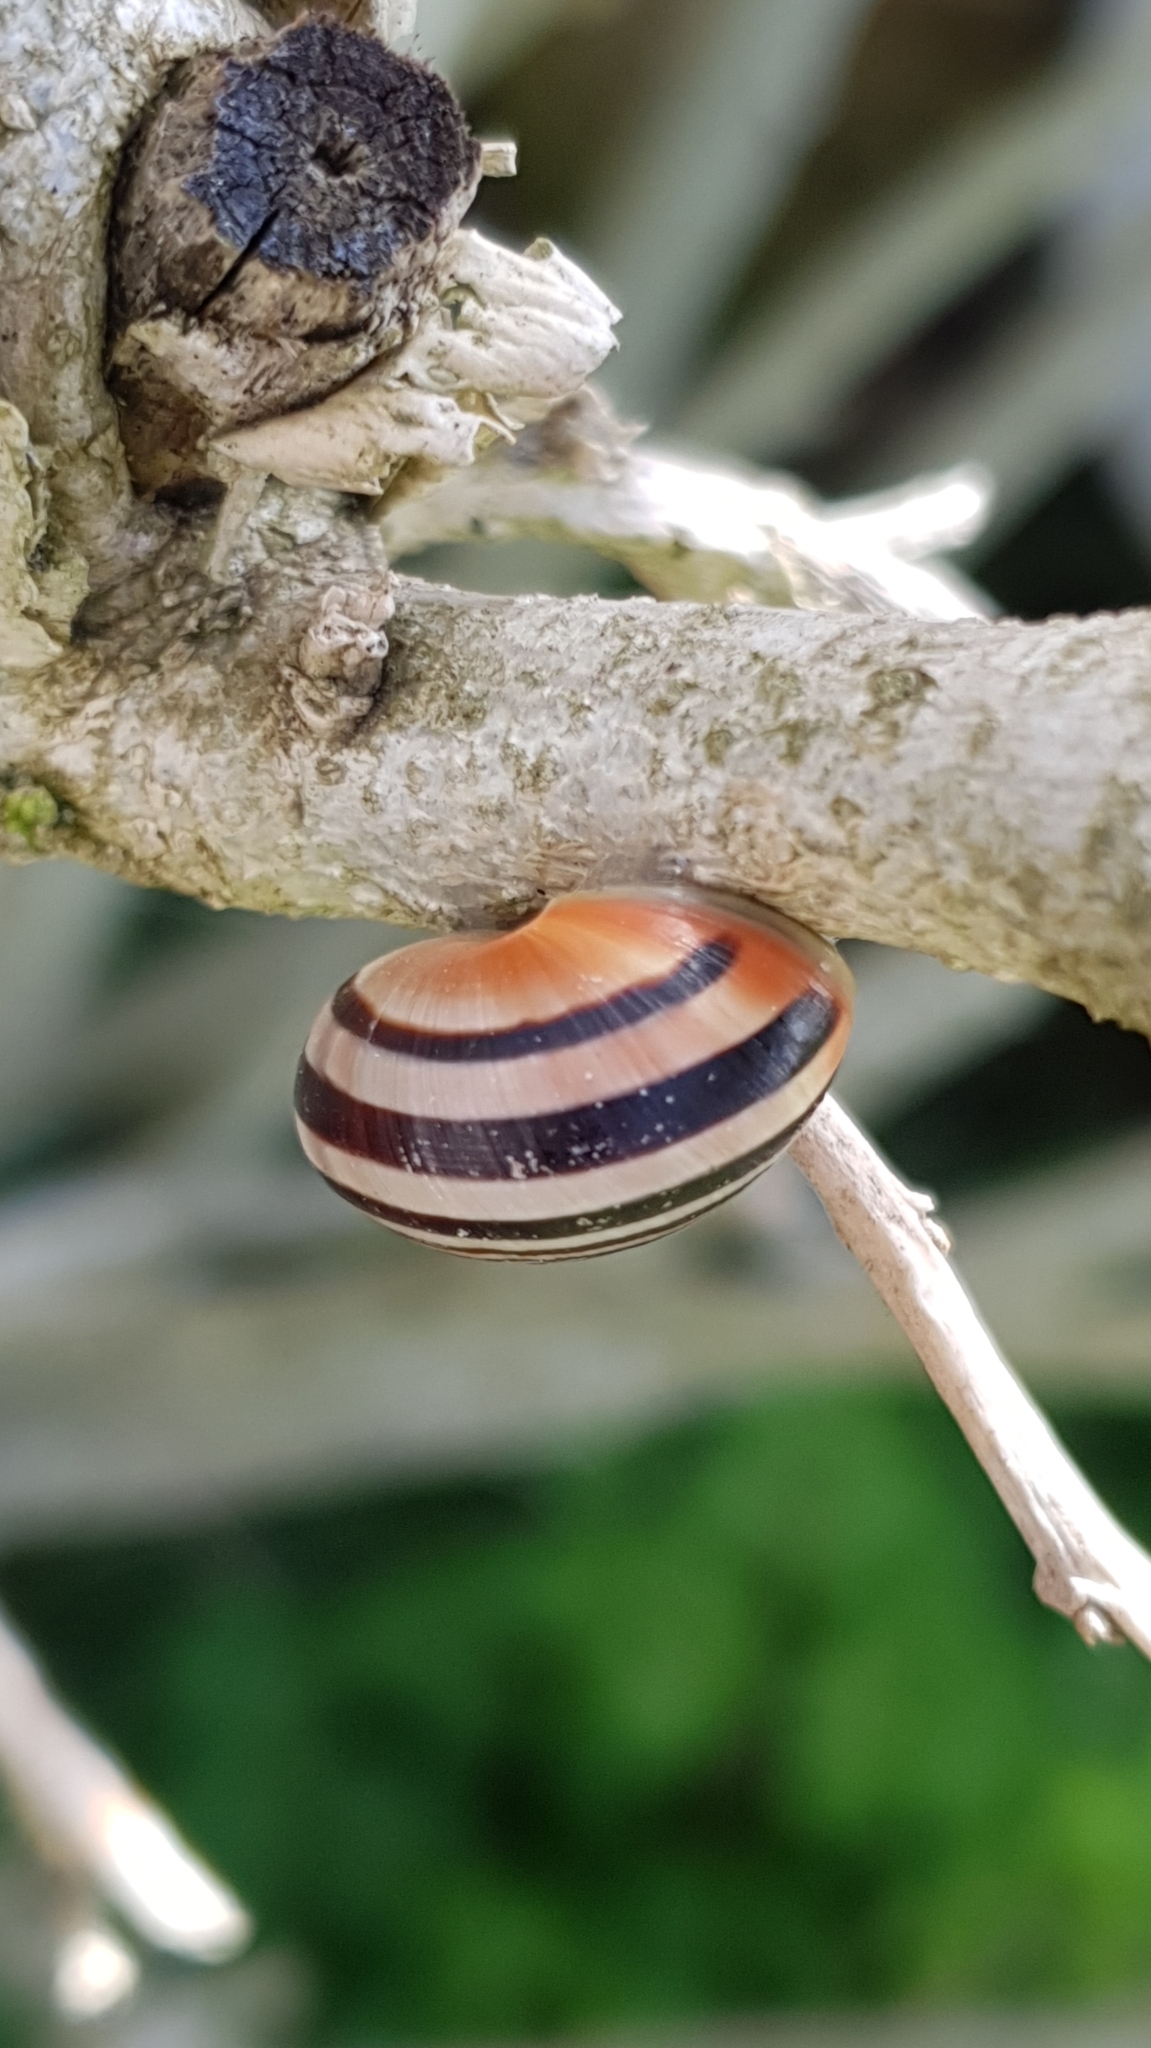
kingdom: Animalia
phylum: Mollusca
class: Gastropoda
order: Stylommatophora
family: Helicidae
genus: Cepaea
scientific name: Cepaea nemoralis
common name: Grovesnail
